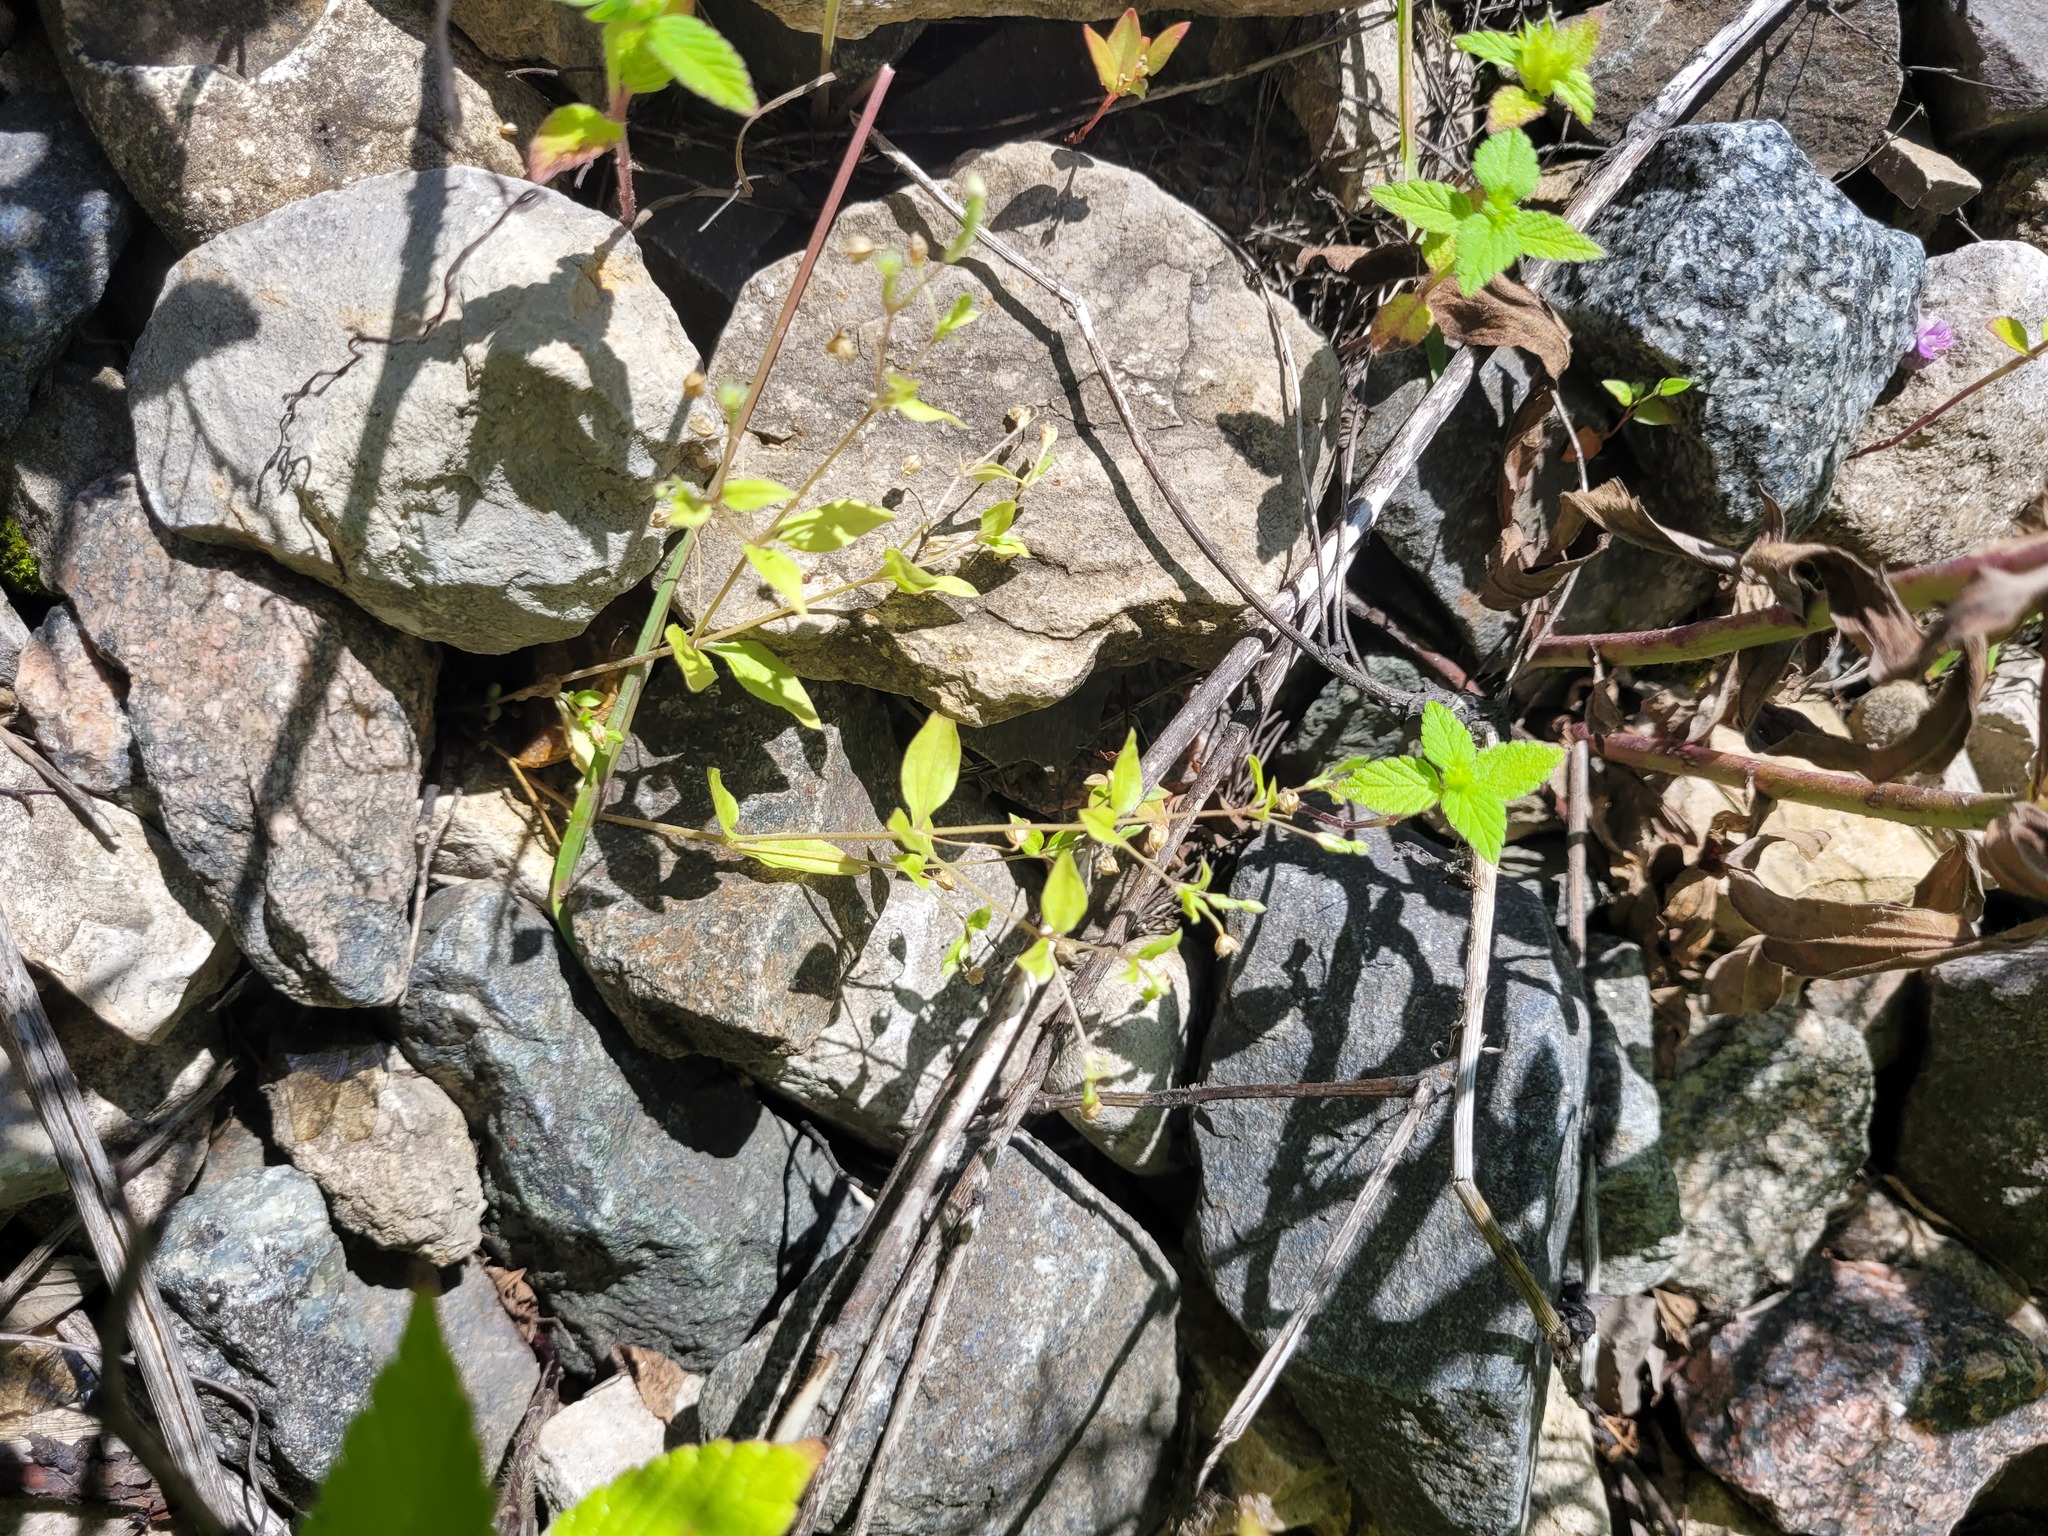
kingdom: Plantae
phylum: Tracheophyta
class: Magnoliopsida
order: Caryophyllales
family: Caryophyllaceae
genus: Moehringia
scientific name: Moehringia trinervia
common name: Three-nerved sandwort
